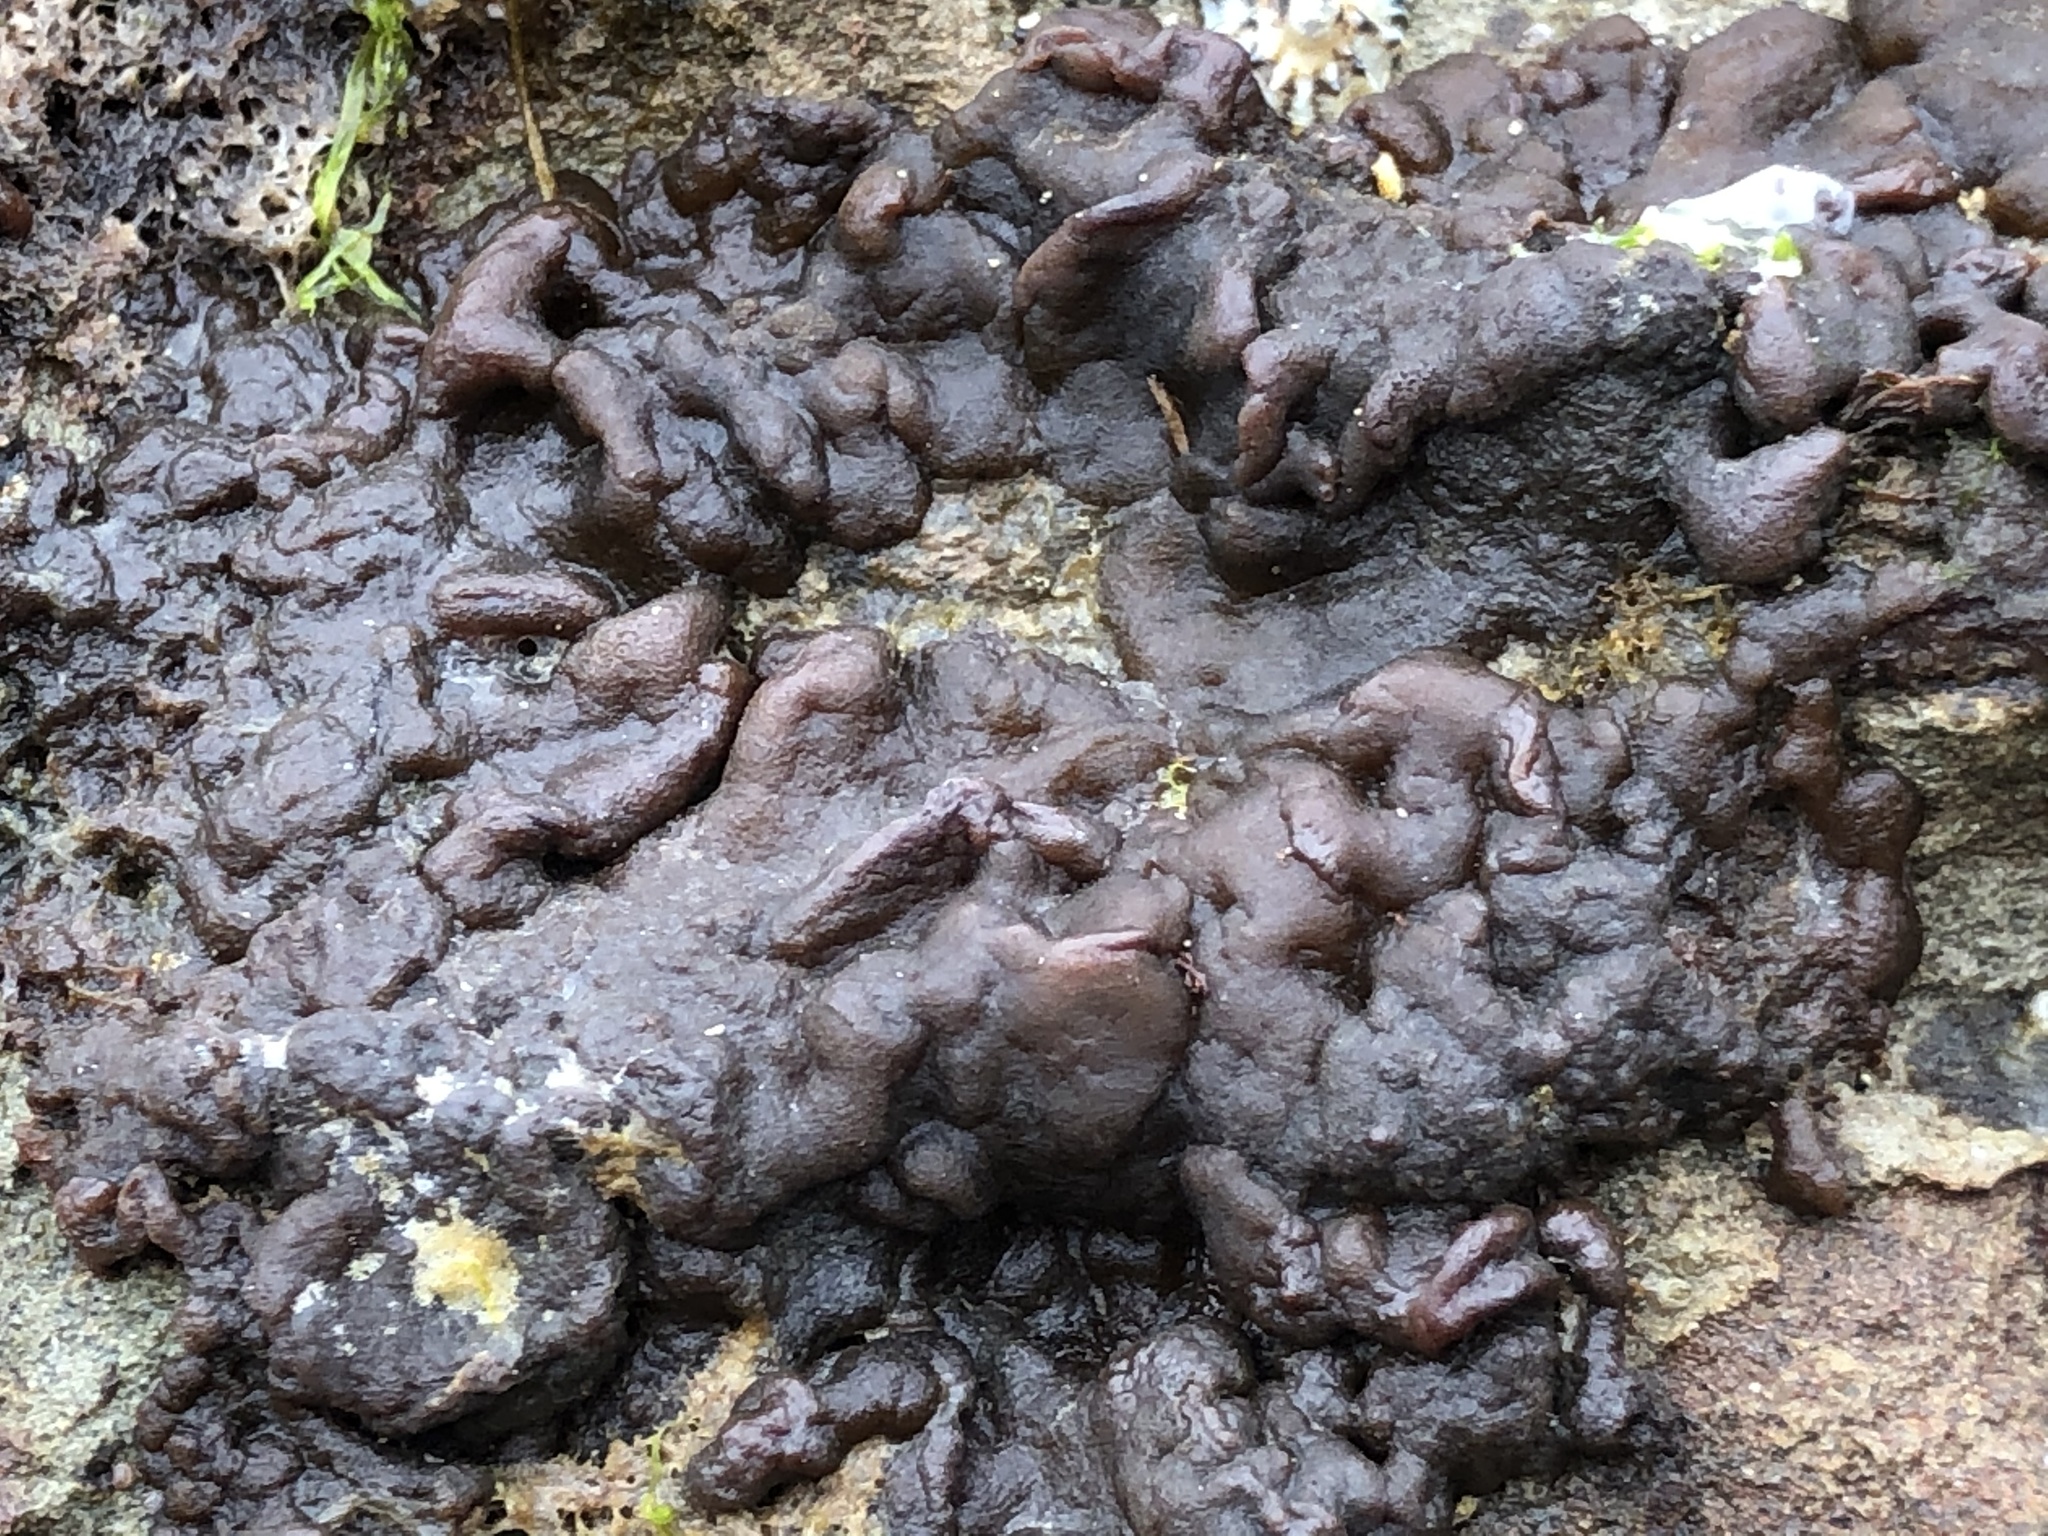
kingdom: Chromista
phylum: Ochrophyta
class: Phaeophyceae
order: Ectocarpales
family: Petrospongiaceae
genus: Petrospongium
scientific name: Petrospongium rugosum
